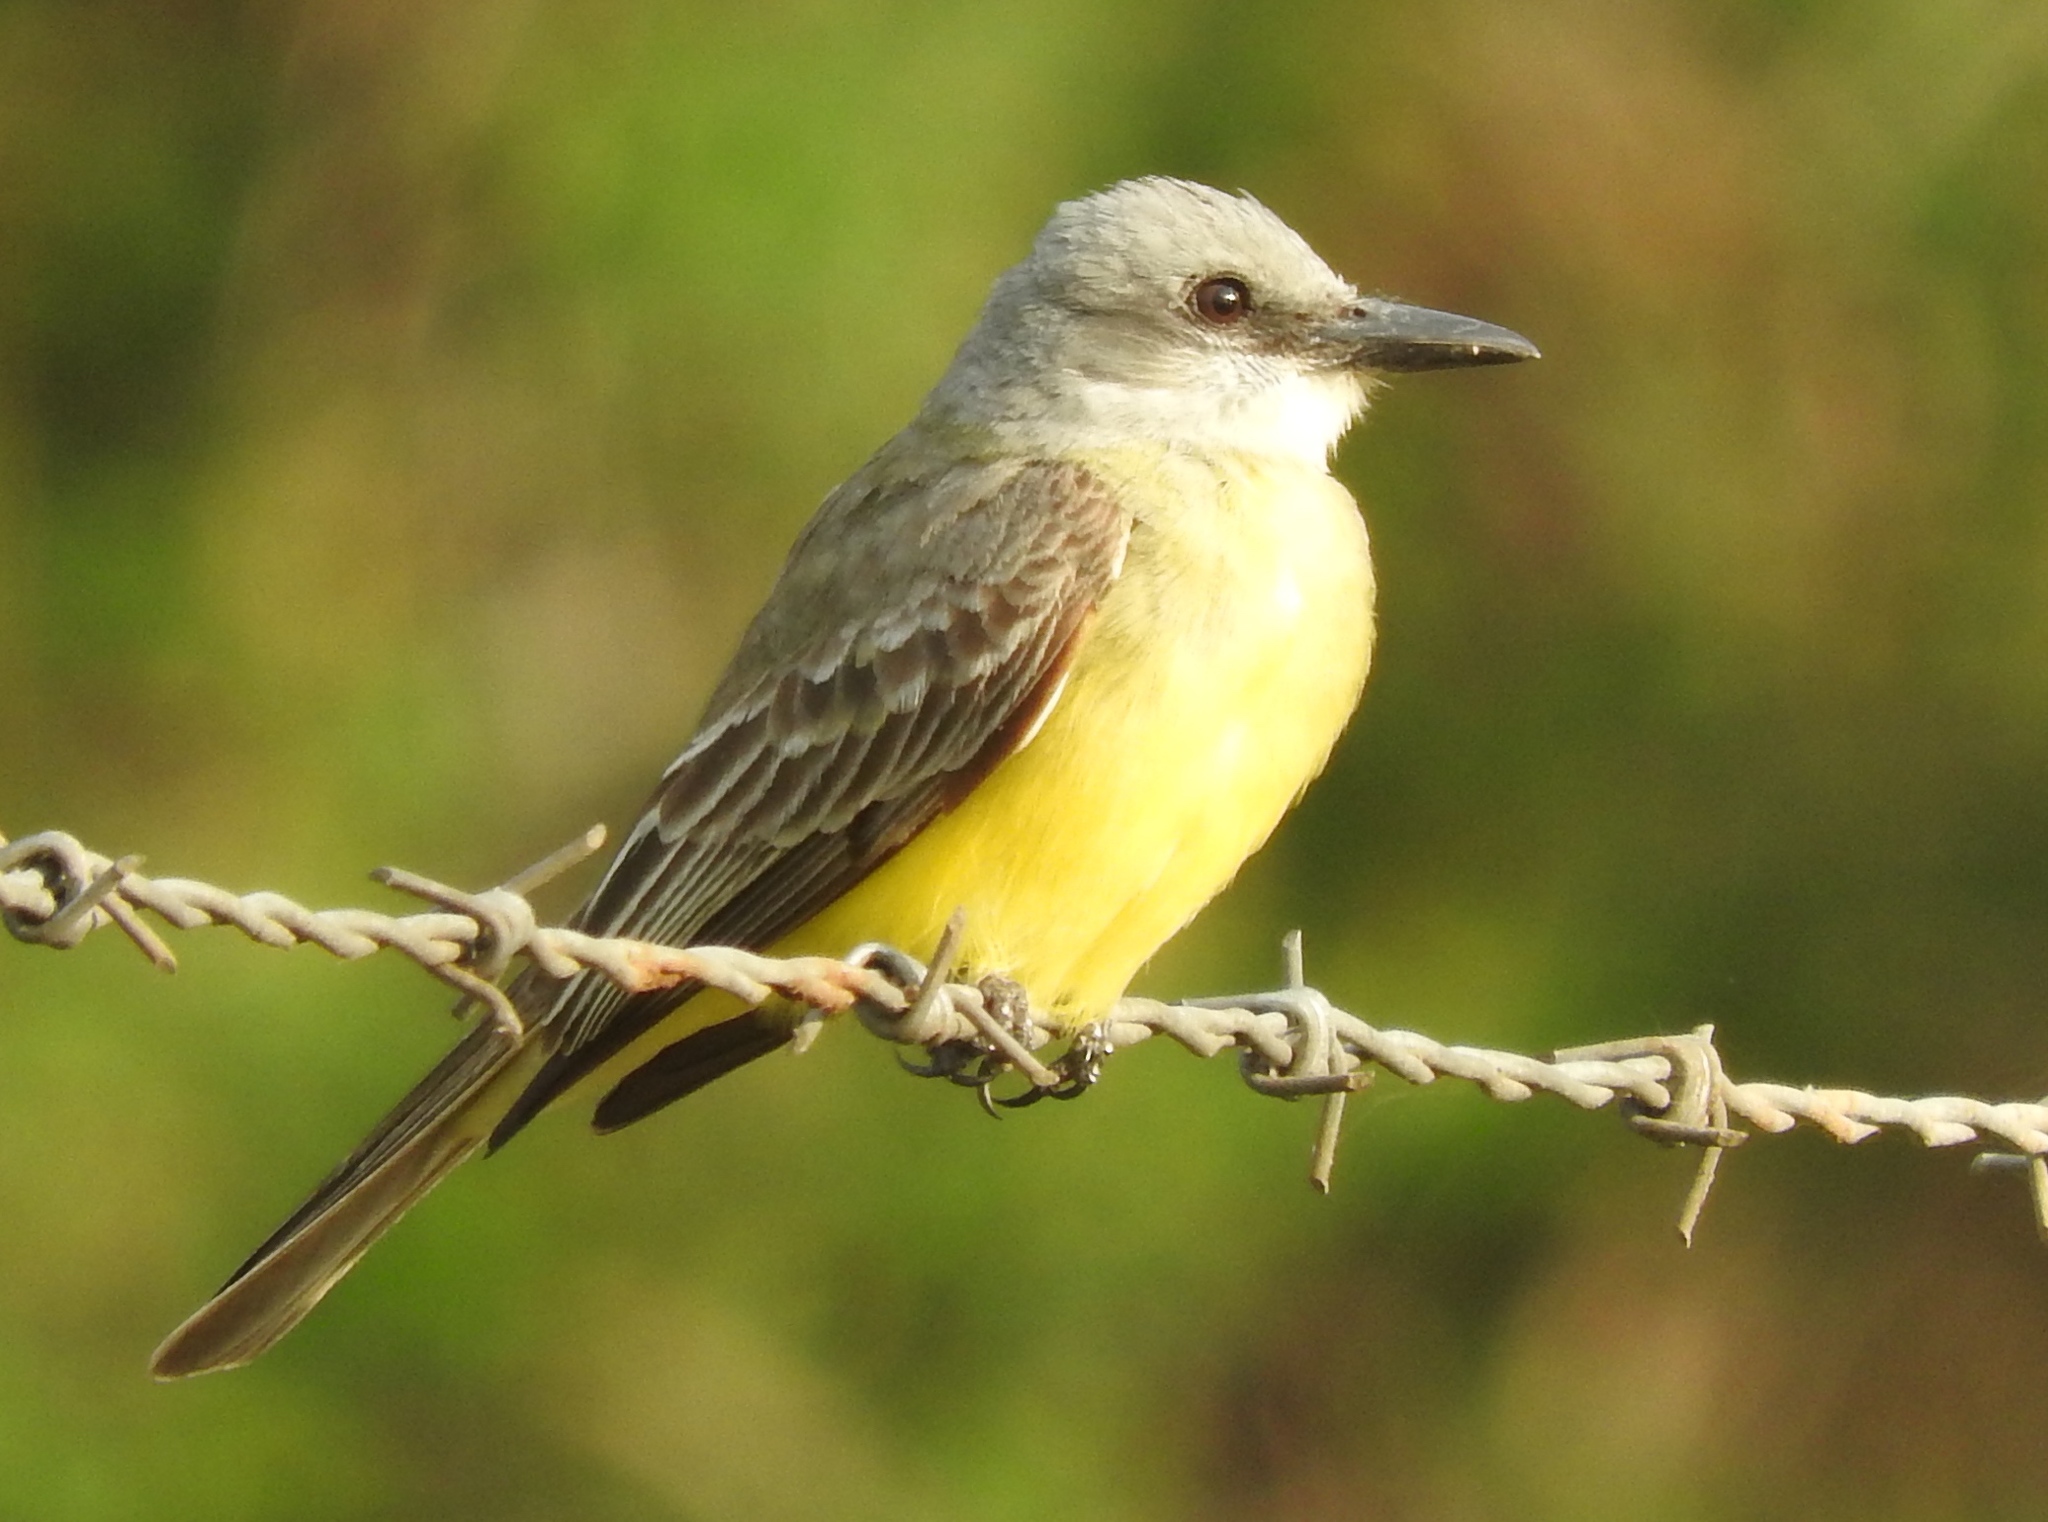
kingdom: Animalia
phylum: Chordata
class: Aves
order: Passeriformes
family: Tyrannidae
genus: Tyrannus
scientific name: Tyrannus melancholicus
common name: Tropical kingbird
